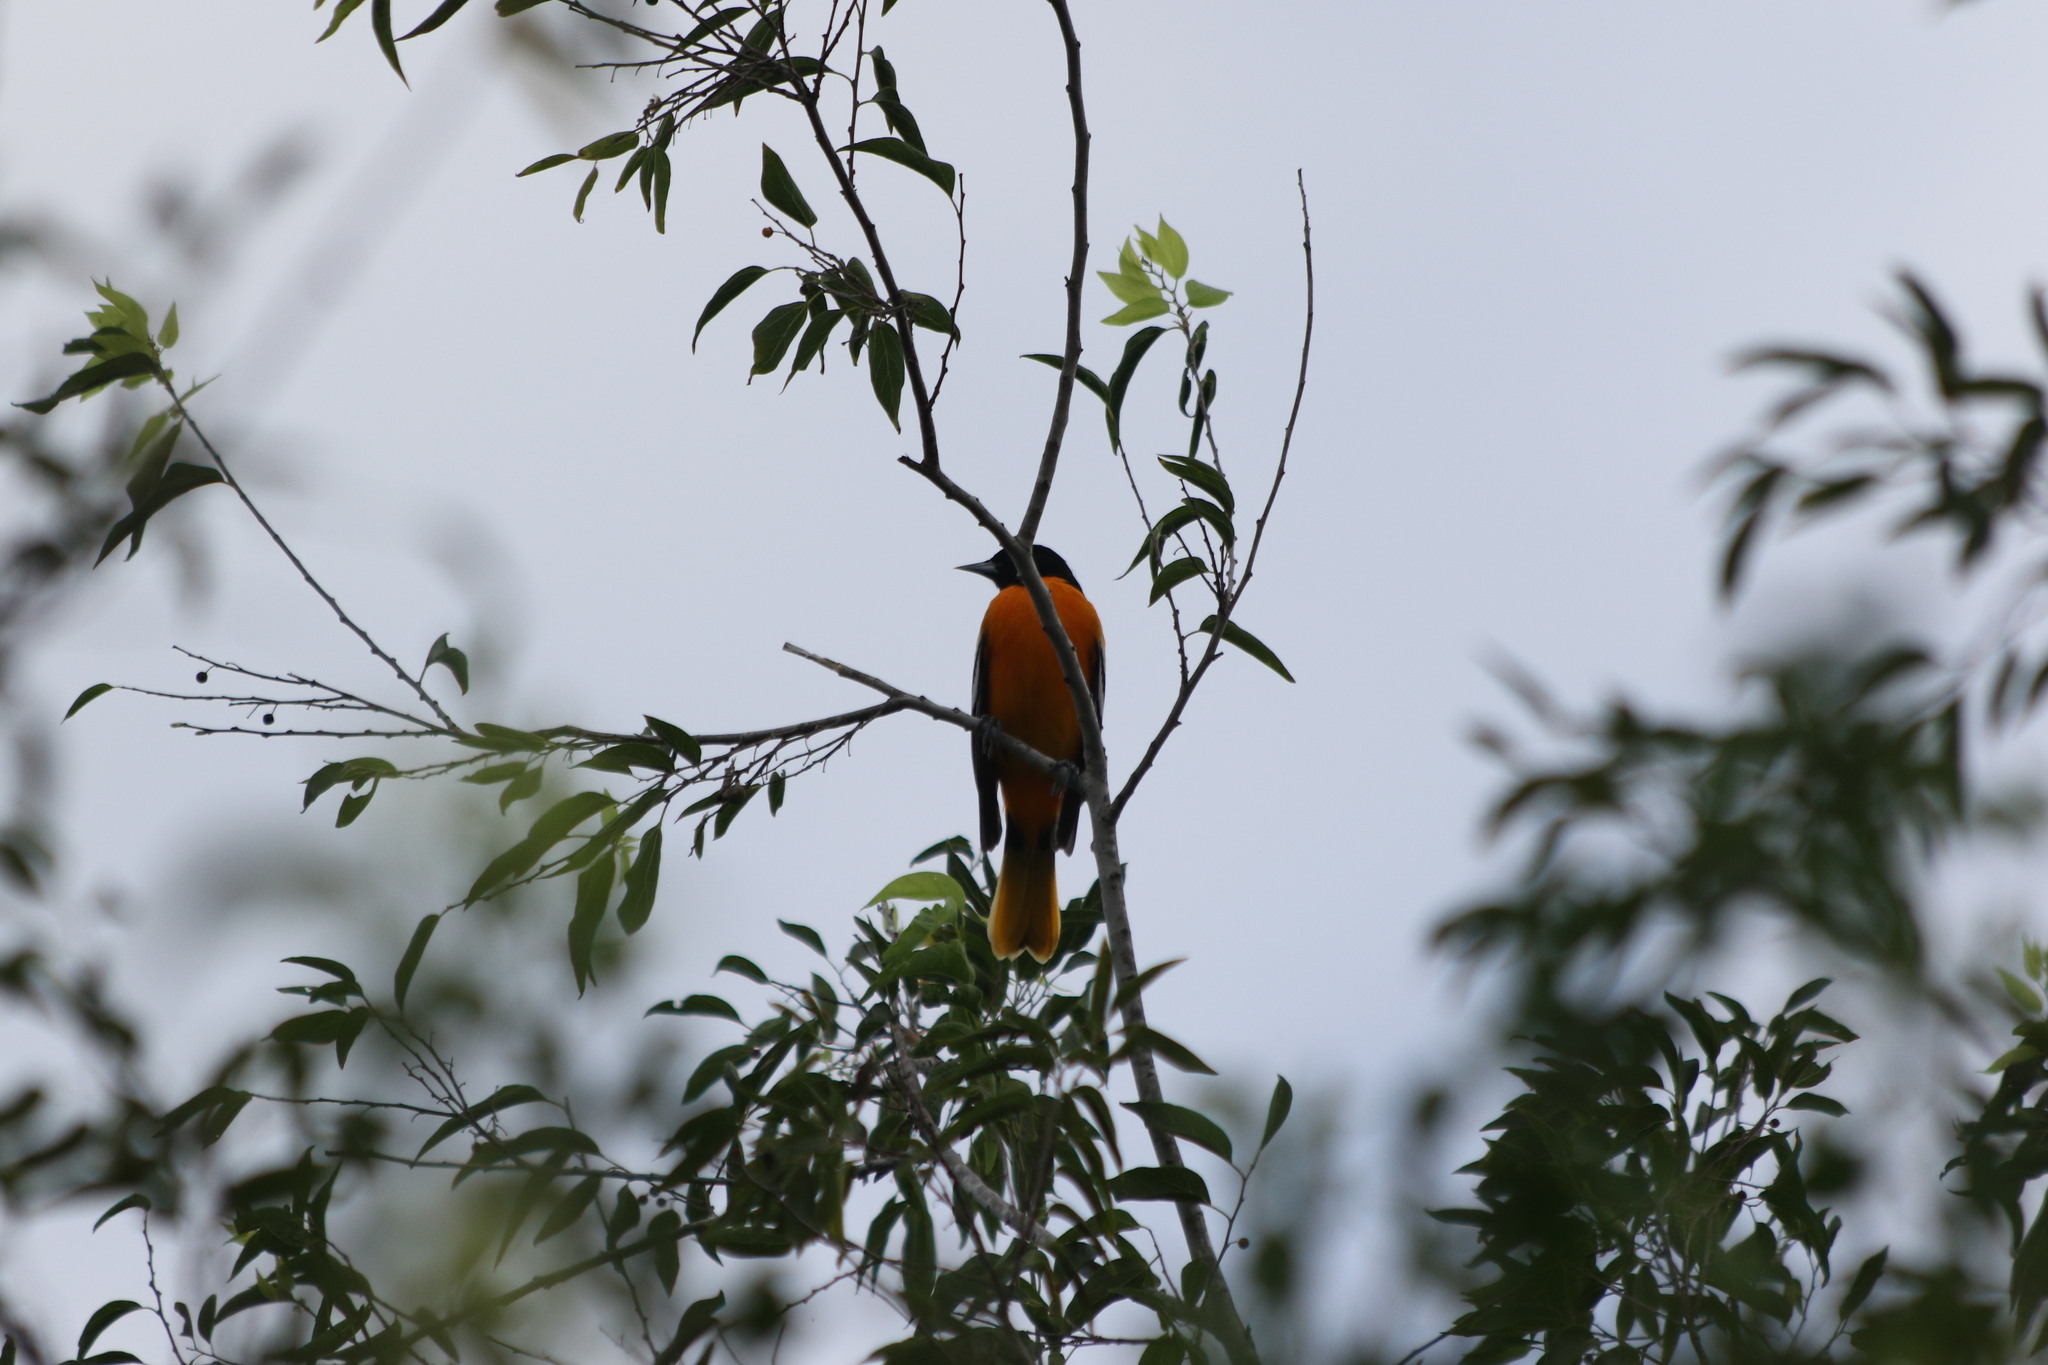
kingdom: Animalia
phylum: Chordata
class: Aves
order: Passeriformes
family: Icteridae
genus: Icterus
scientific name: Icterus galbula
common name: Baltimore oriole
